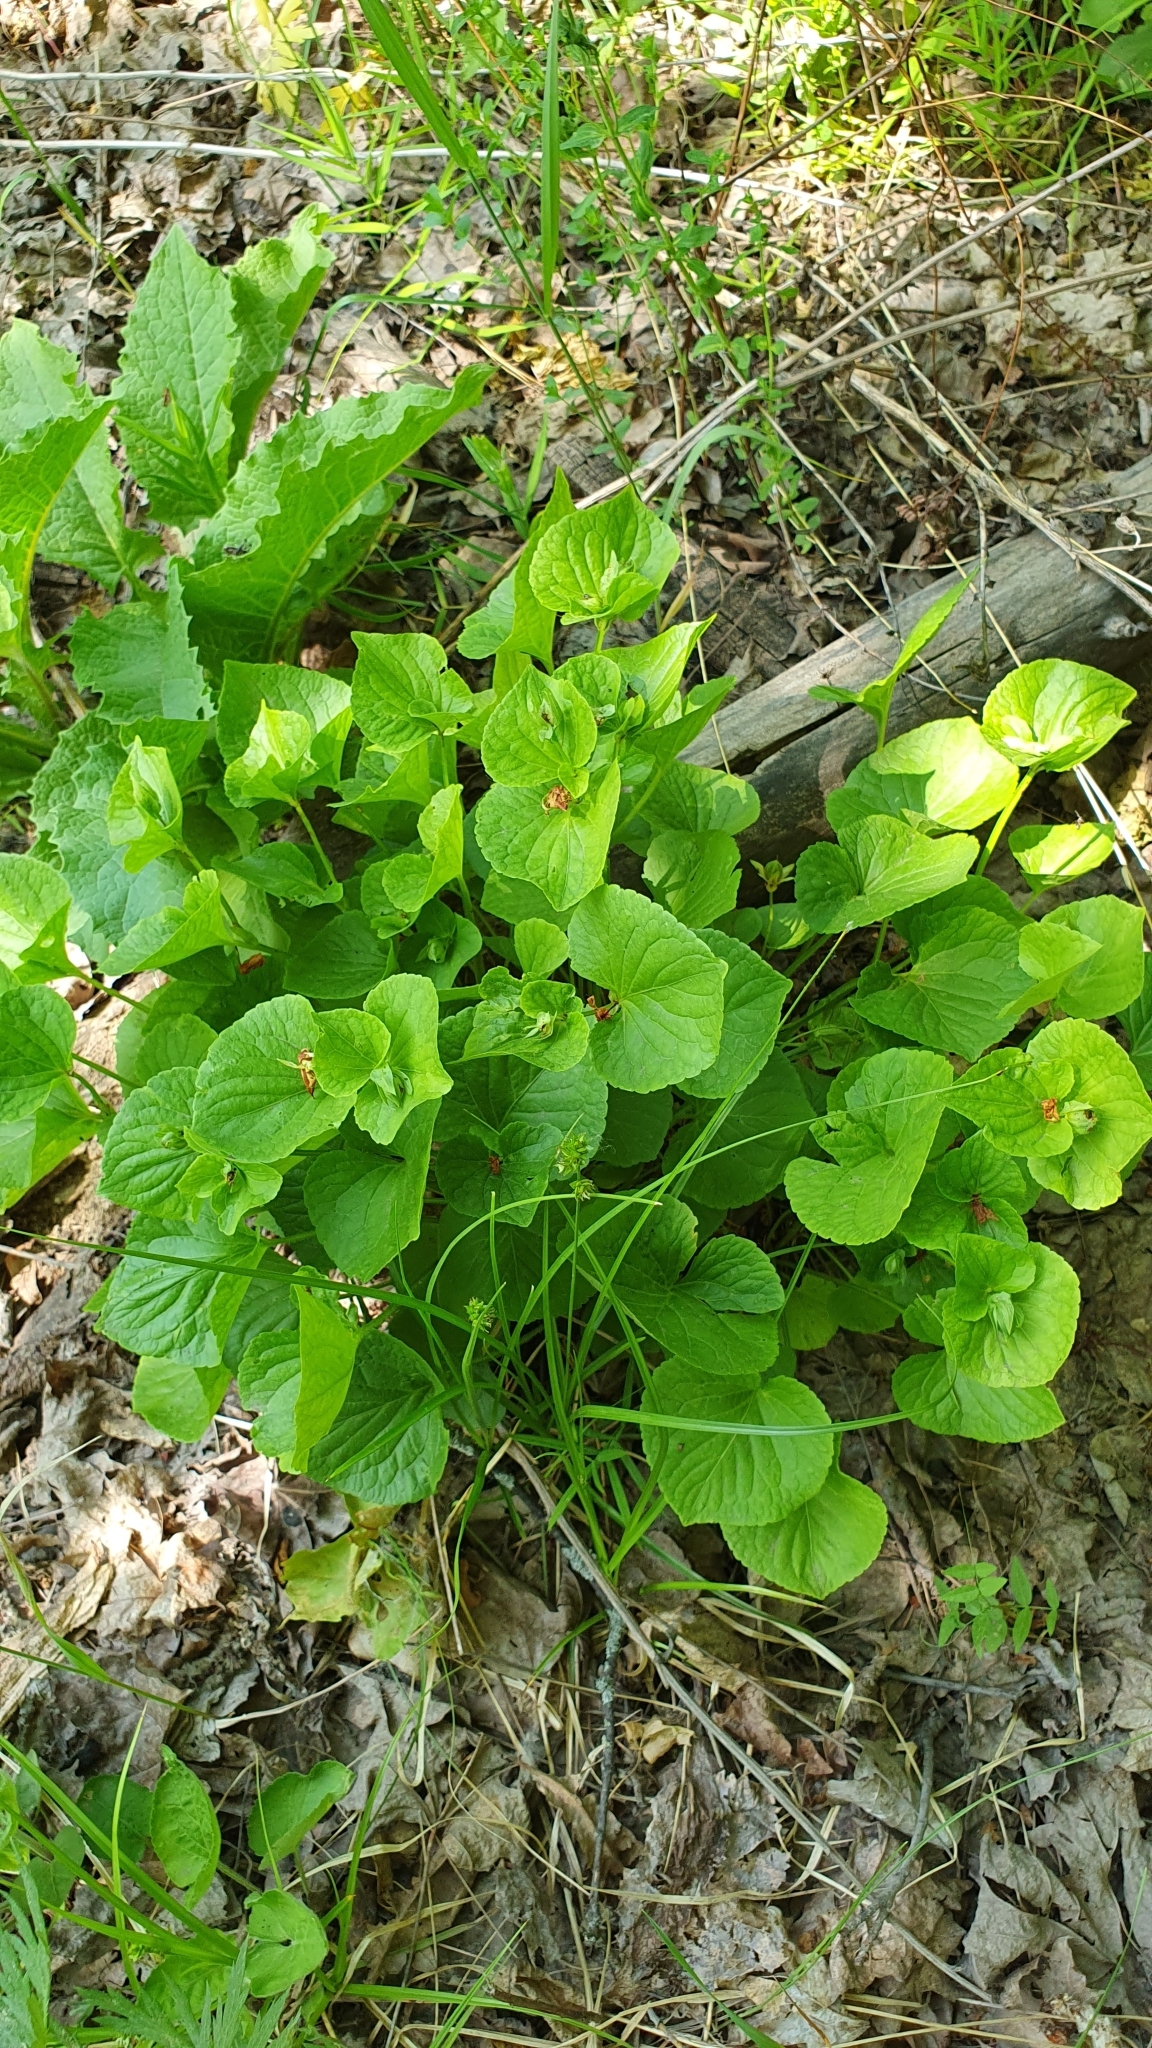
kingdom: Plantae
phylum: Tracheophyta
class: Magnoliopsida
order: Malpighiales
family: Violaceae
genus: Viola
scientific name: Viola mirabilis
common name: Wonder violet
